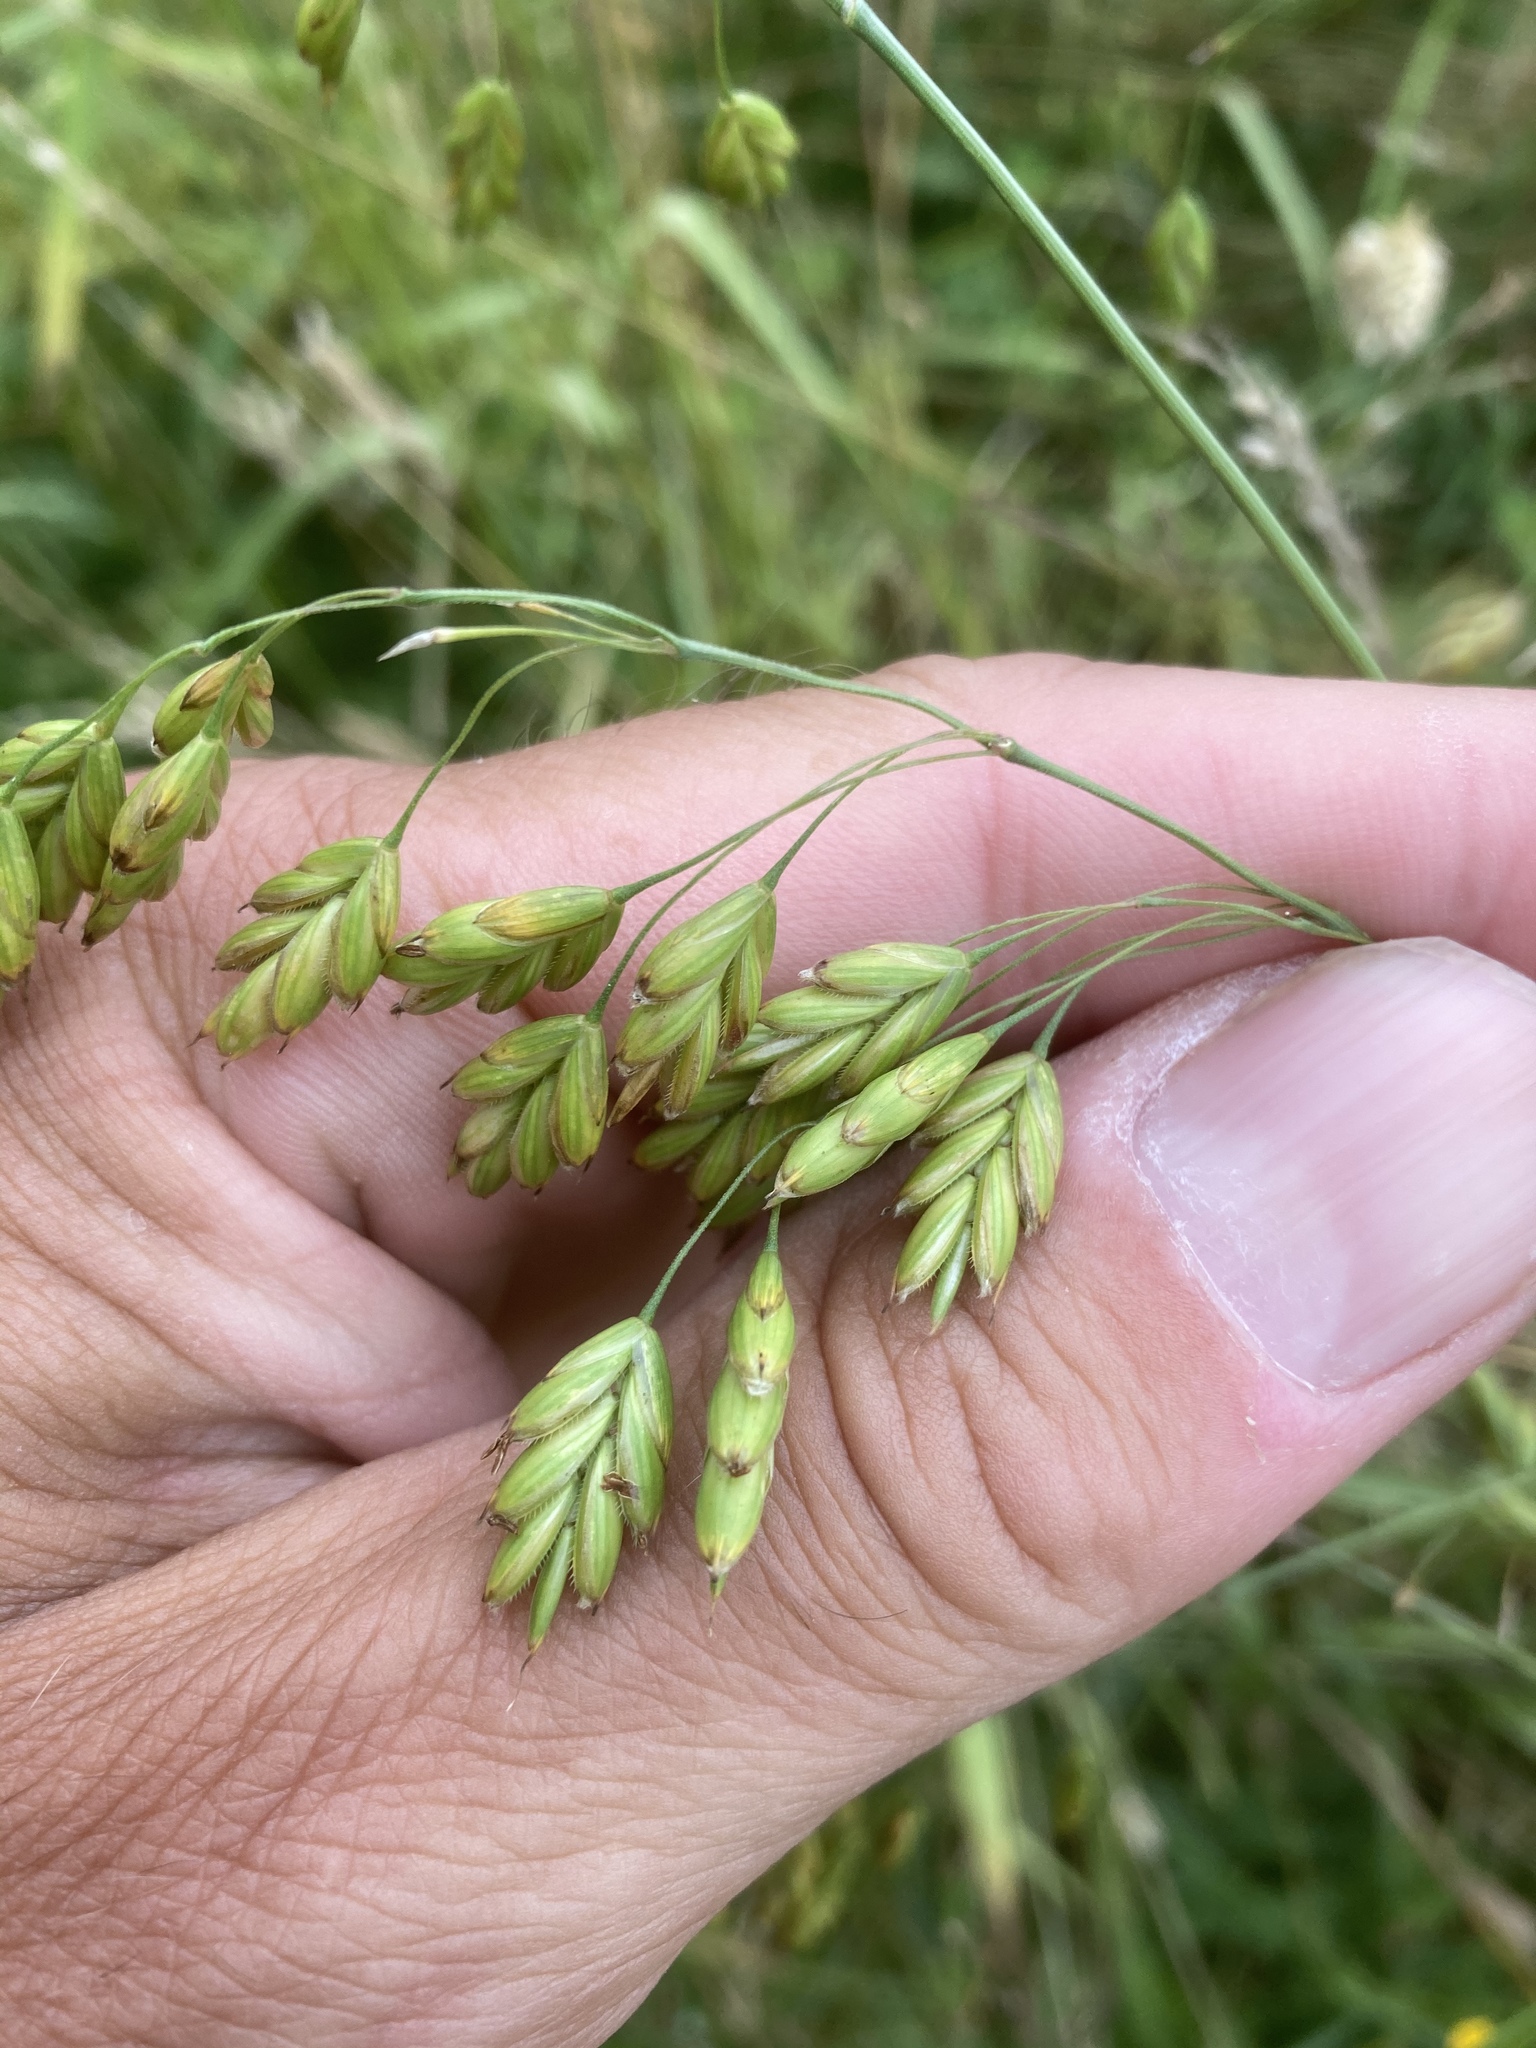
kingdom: Plantae
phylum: Tracheophyta
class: Liliopsida
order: Poales
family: Poaceae
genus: Bromus
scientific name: Bromus secalinus
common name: Rye brome
